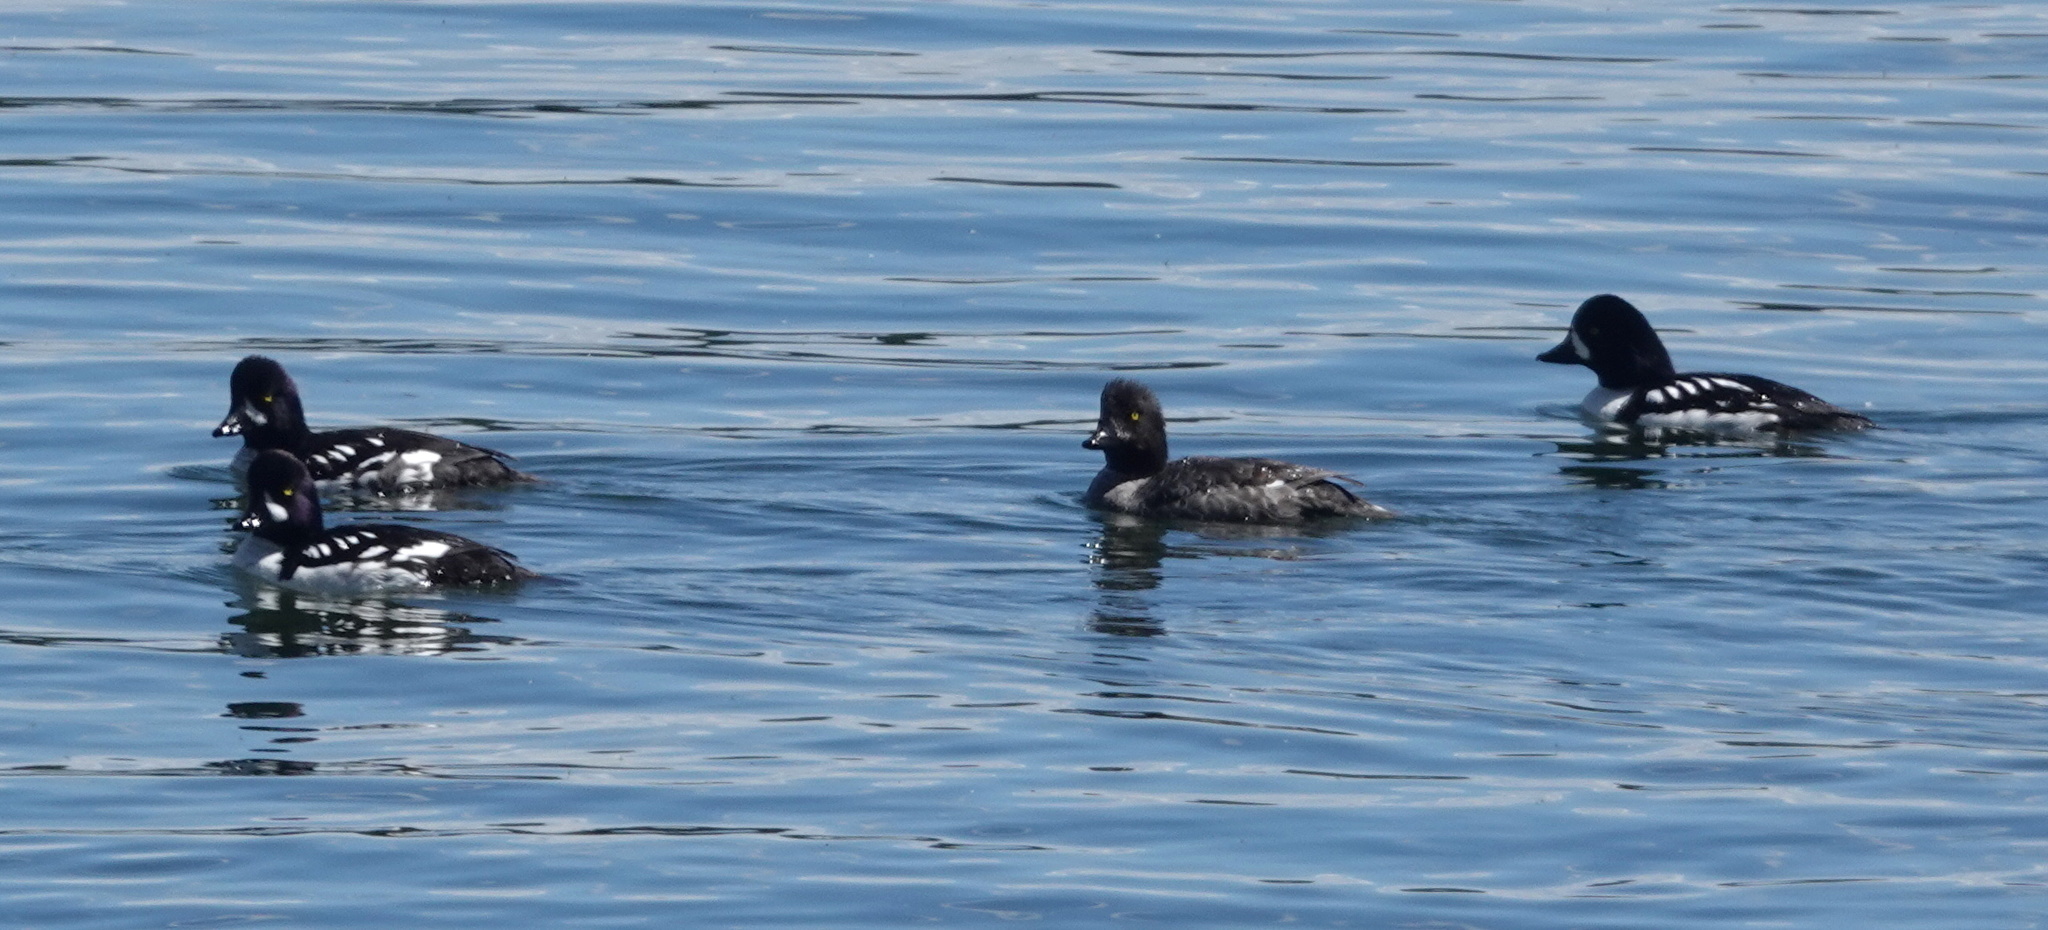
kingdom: Animalia
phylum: Chordata
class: Aves
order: Anseriformes
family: Anatidae
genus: Bucephala
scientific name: Bucephala islandica
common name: Barrow's goldeneye
